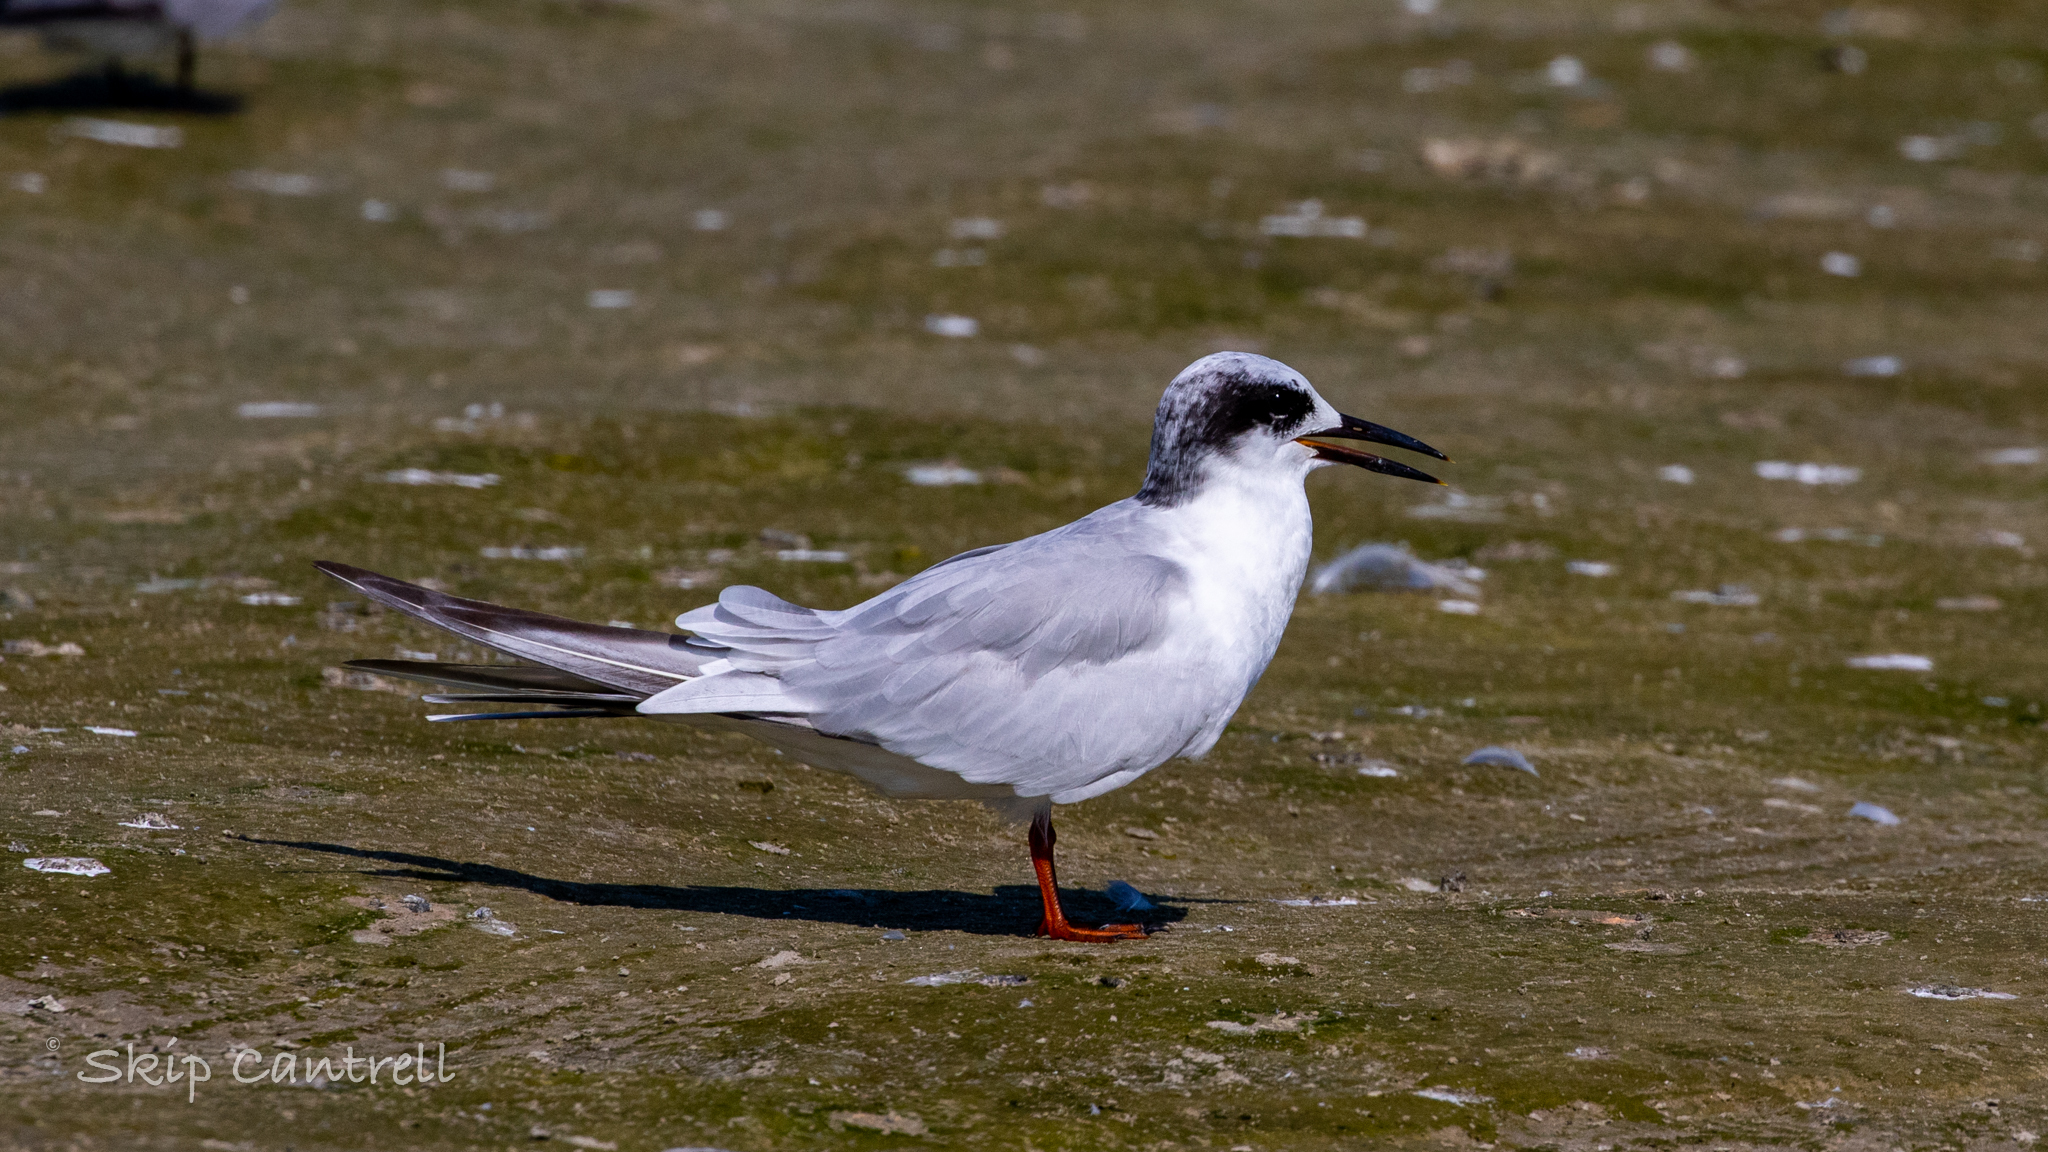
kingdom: Animalia
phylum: Chordata
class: Aves
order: Charadriiformes
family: Laridae
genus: Sterna
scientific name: Sterna forsteri
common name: Forster's tern
